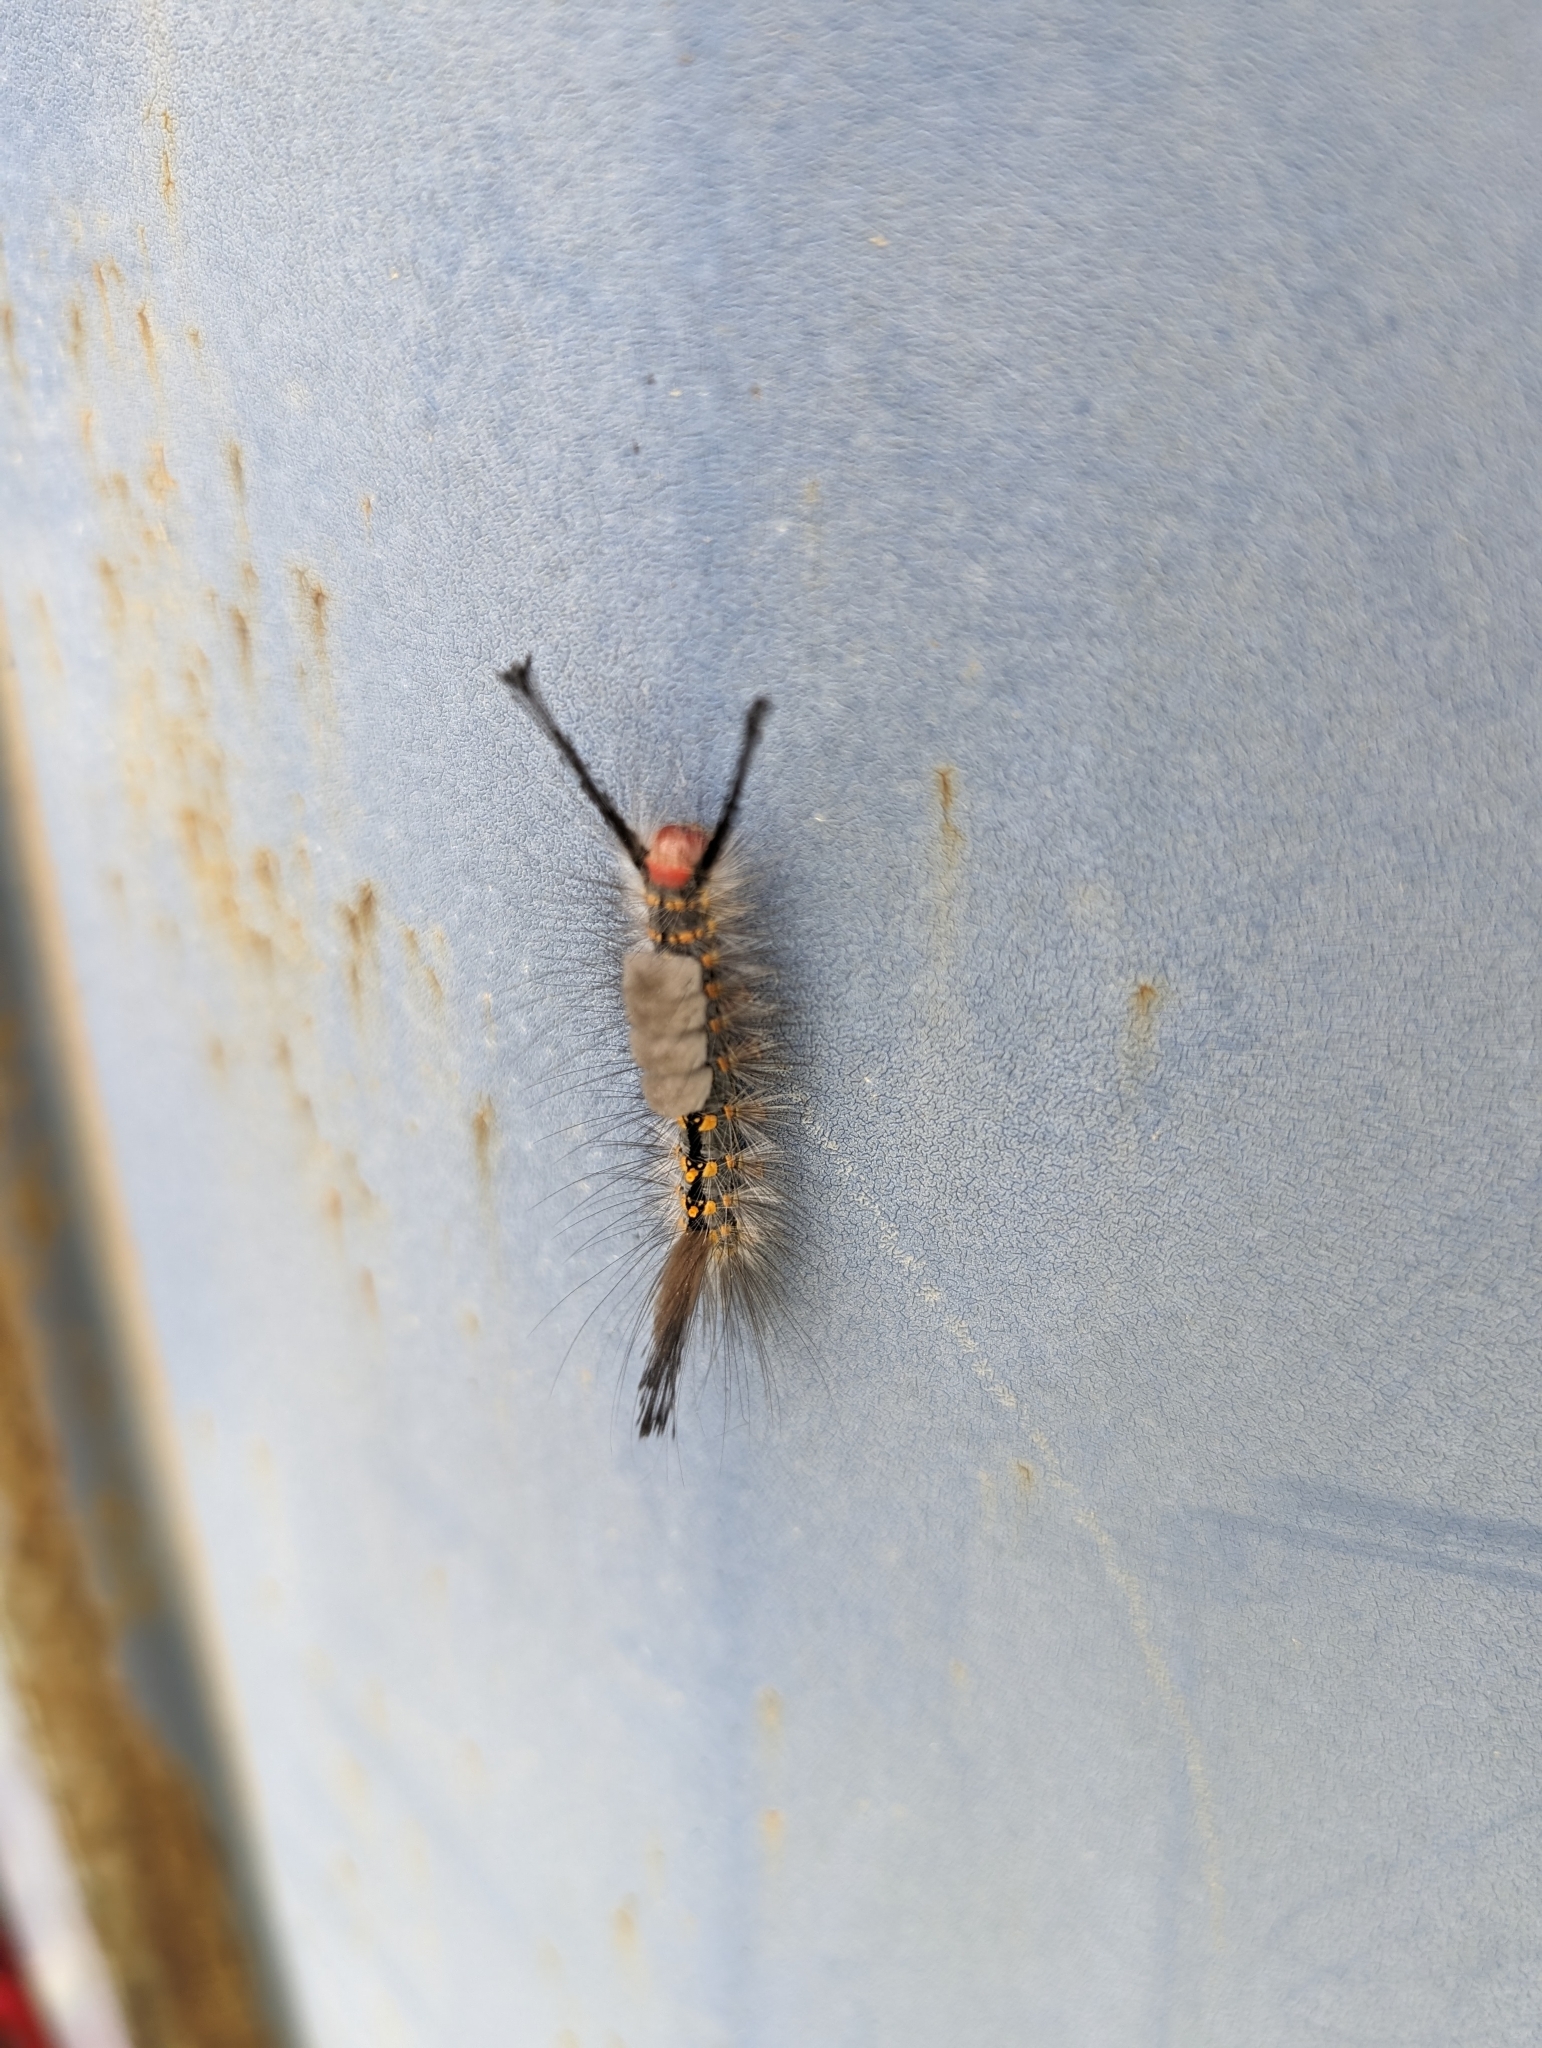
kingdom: Animalia
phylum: Arthropoda
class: Insecta
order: Lepidoptera
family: Erebidae
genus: Orgyia
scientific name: Orgyia detrita
